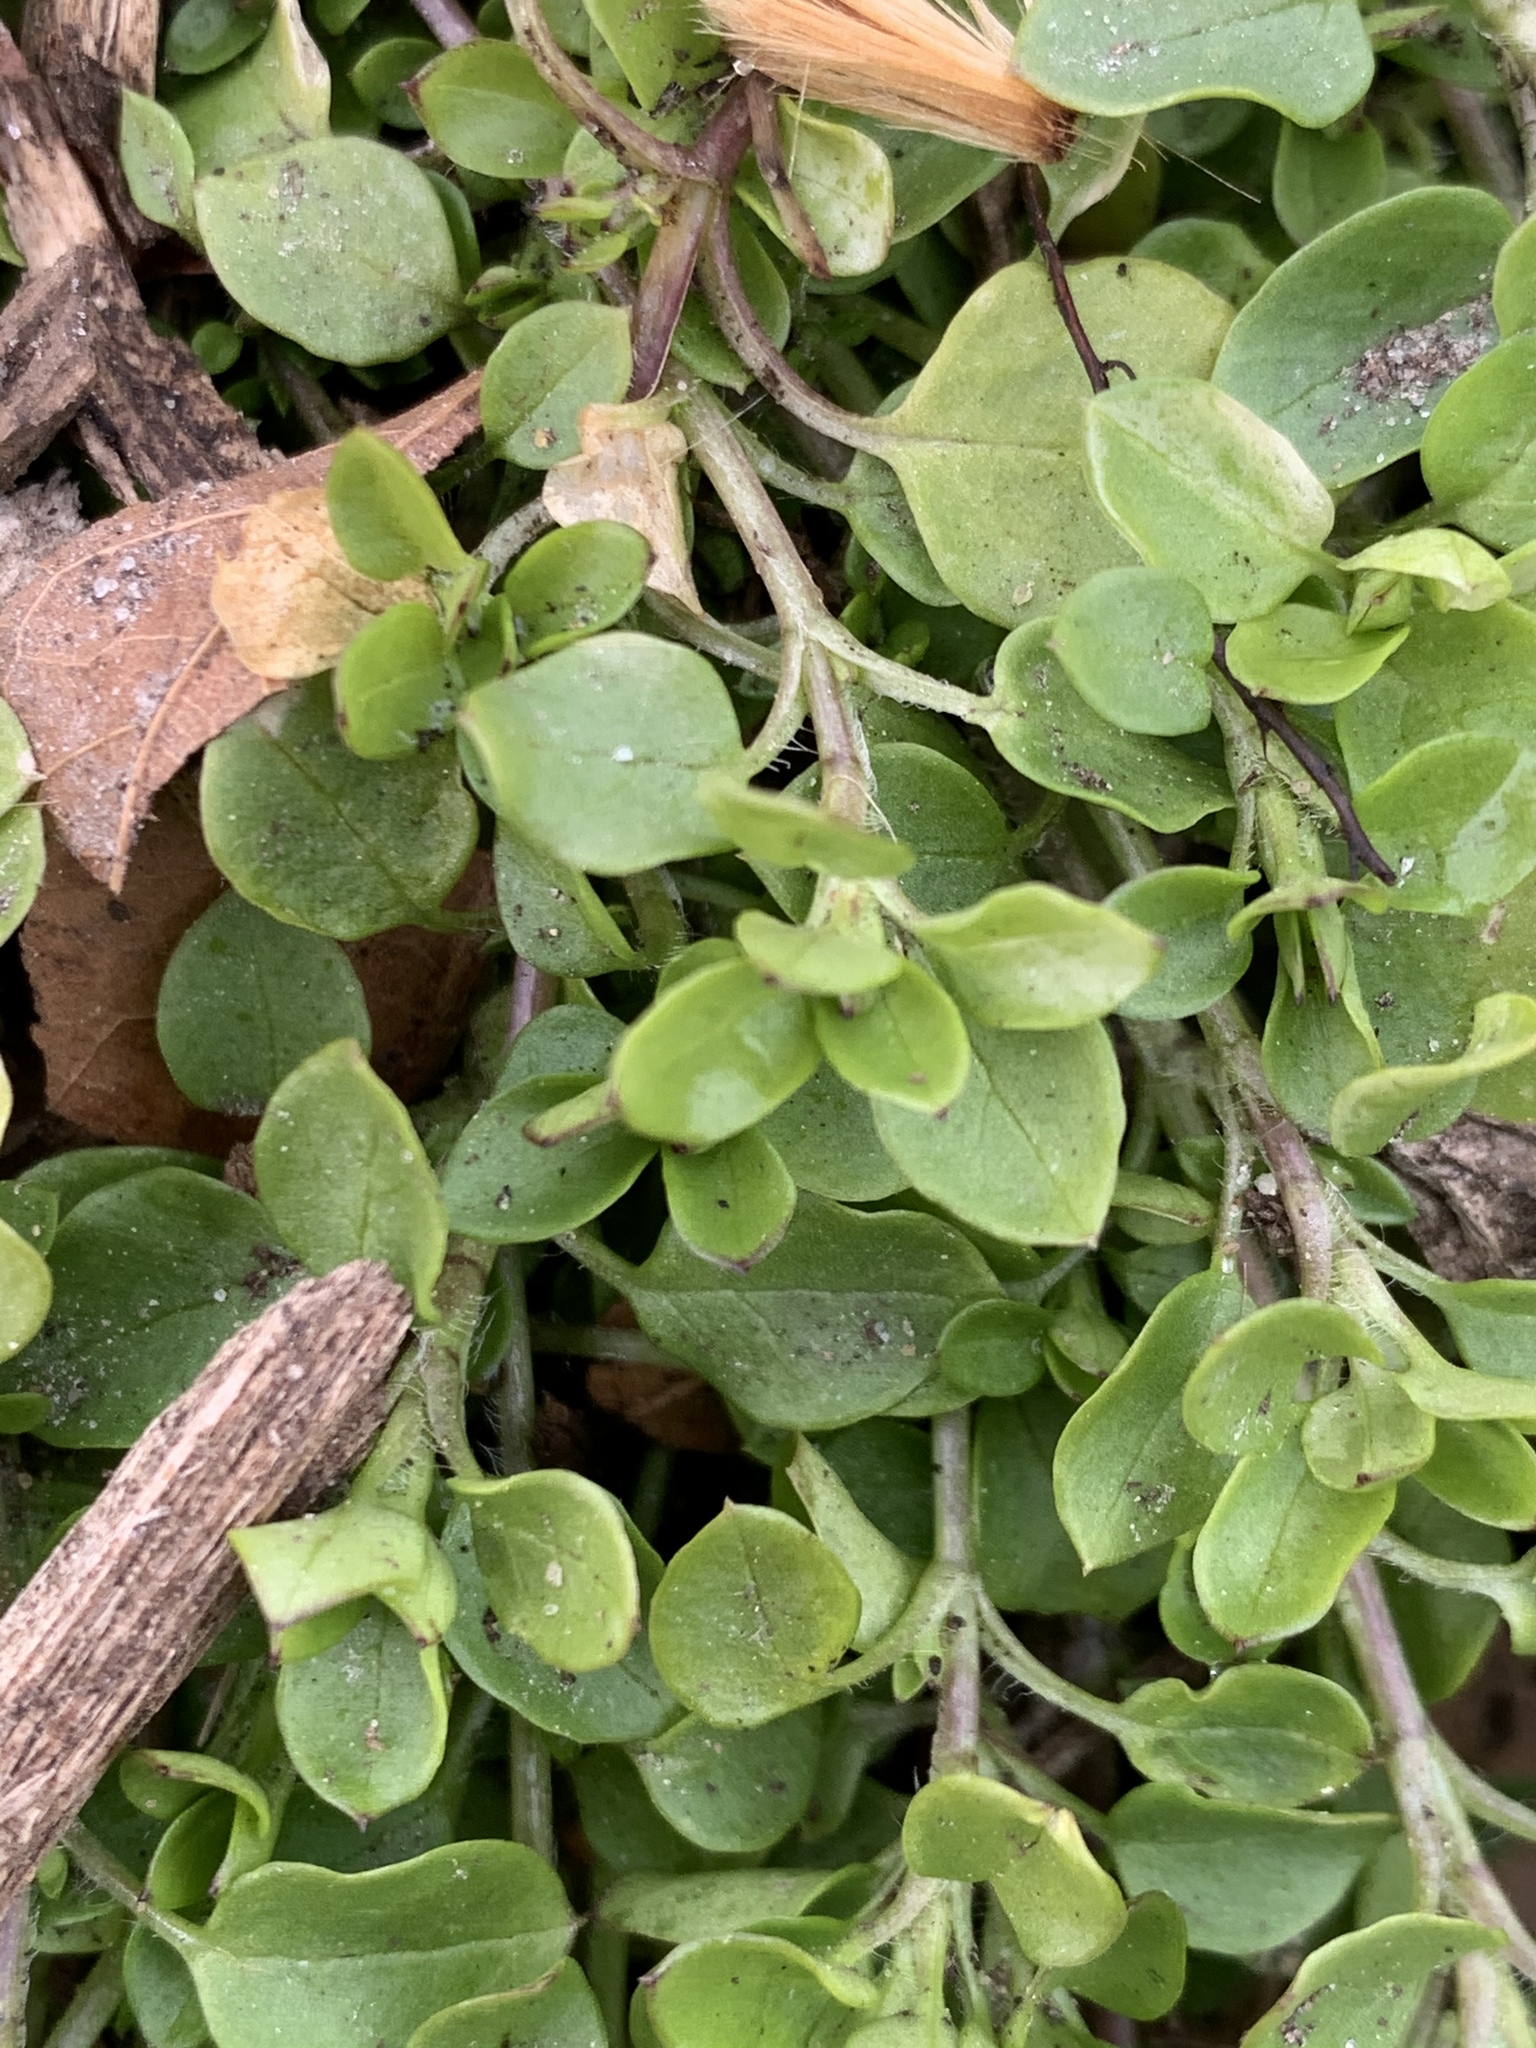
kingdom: Plantae
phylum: Tracheophyta
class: Magnoliopsida
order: Caryophyllales
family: Caryophyllaceae
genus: Stellaria
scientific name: Stellaria media
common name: Common chickweed
